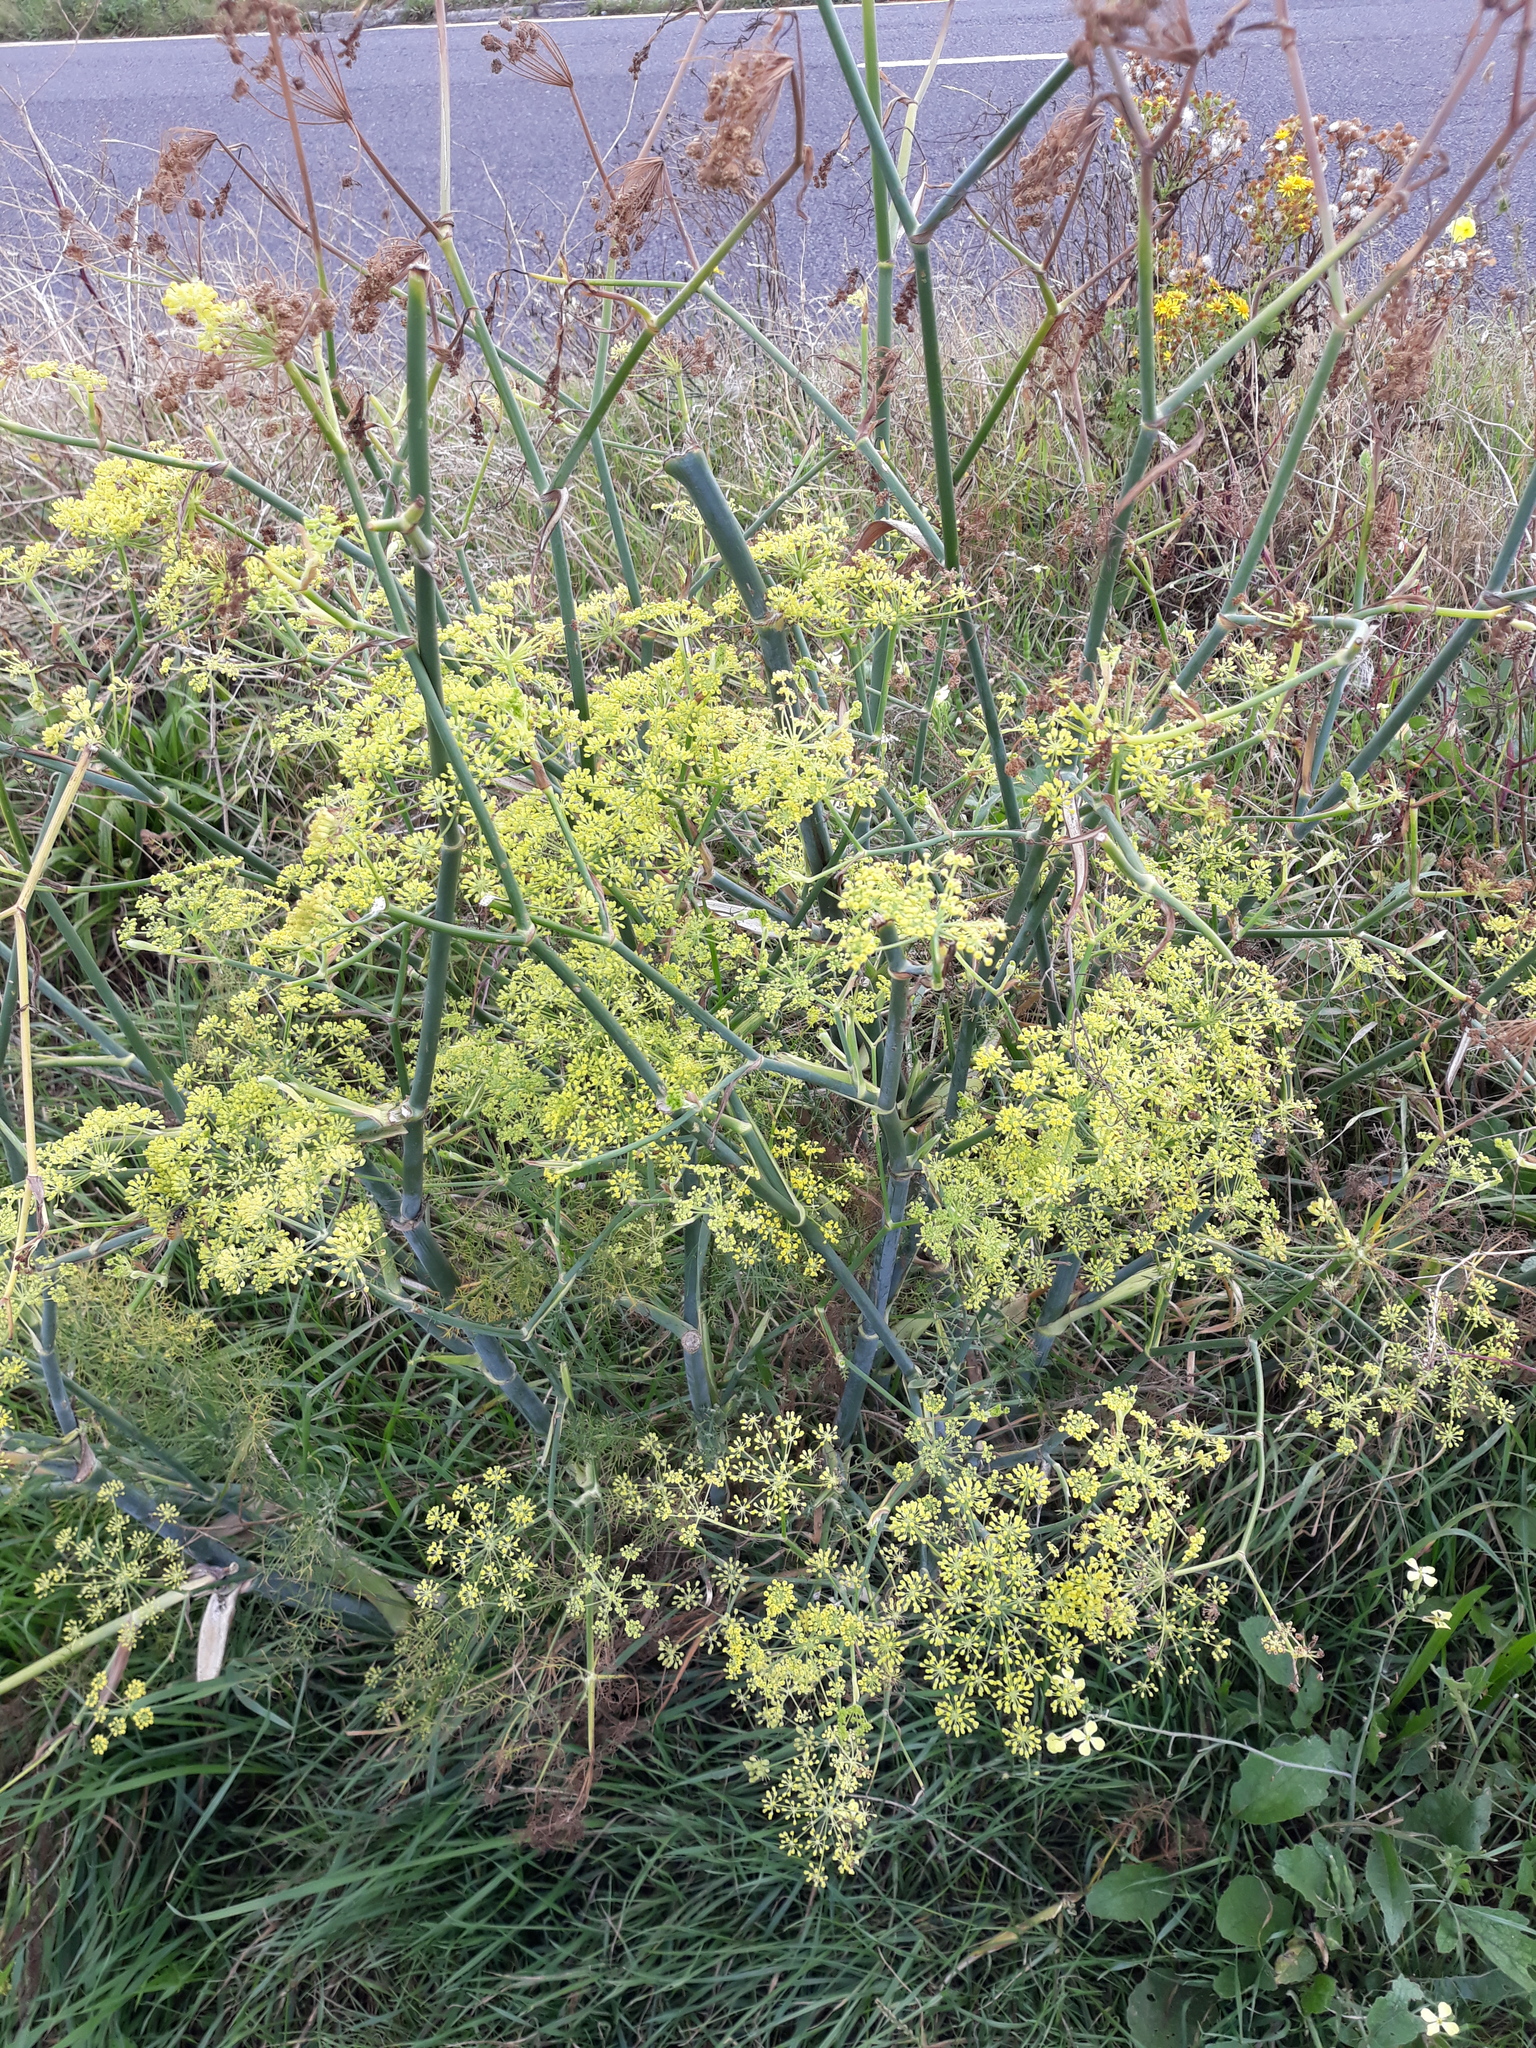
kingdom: Plantae
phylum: Tracheophyta
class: Magnoliopsida
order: Apiales
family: Apiaceae
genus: Foeniculum
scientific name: Foeniculum vulgare
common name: Fennel
